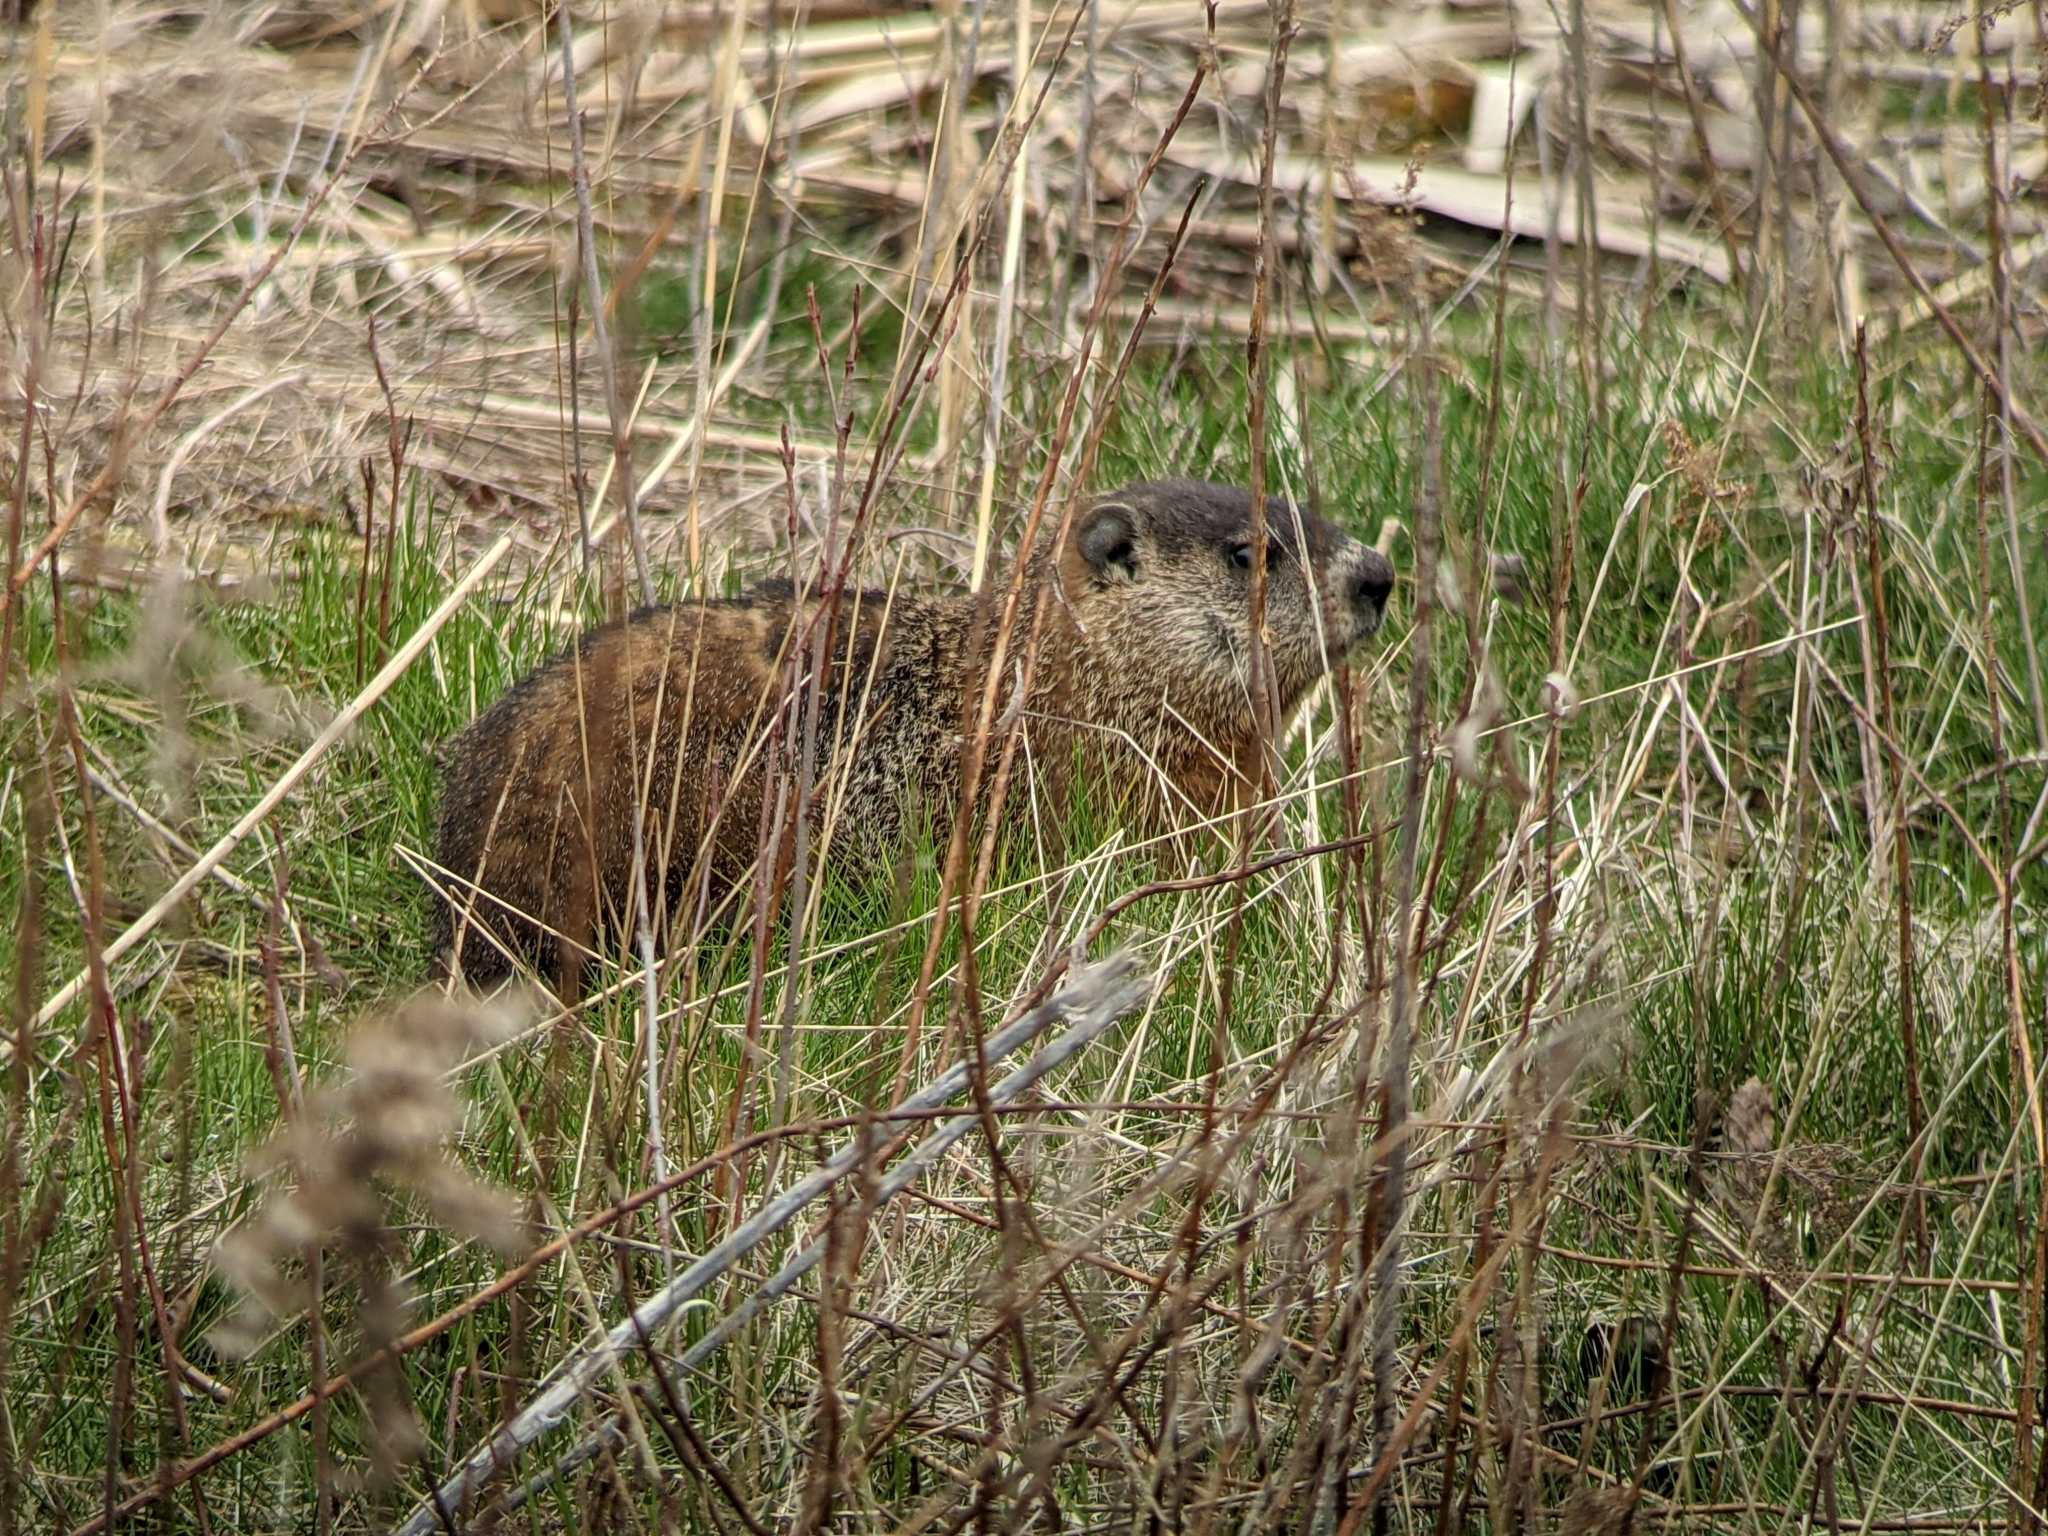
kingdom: Animalia
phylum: Chordata
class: Mammalia
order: Rodentia
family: Sciuridae
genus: Marmota
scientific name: Marmota monax
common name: Groundhog
